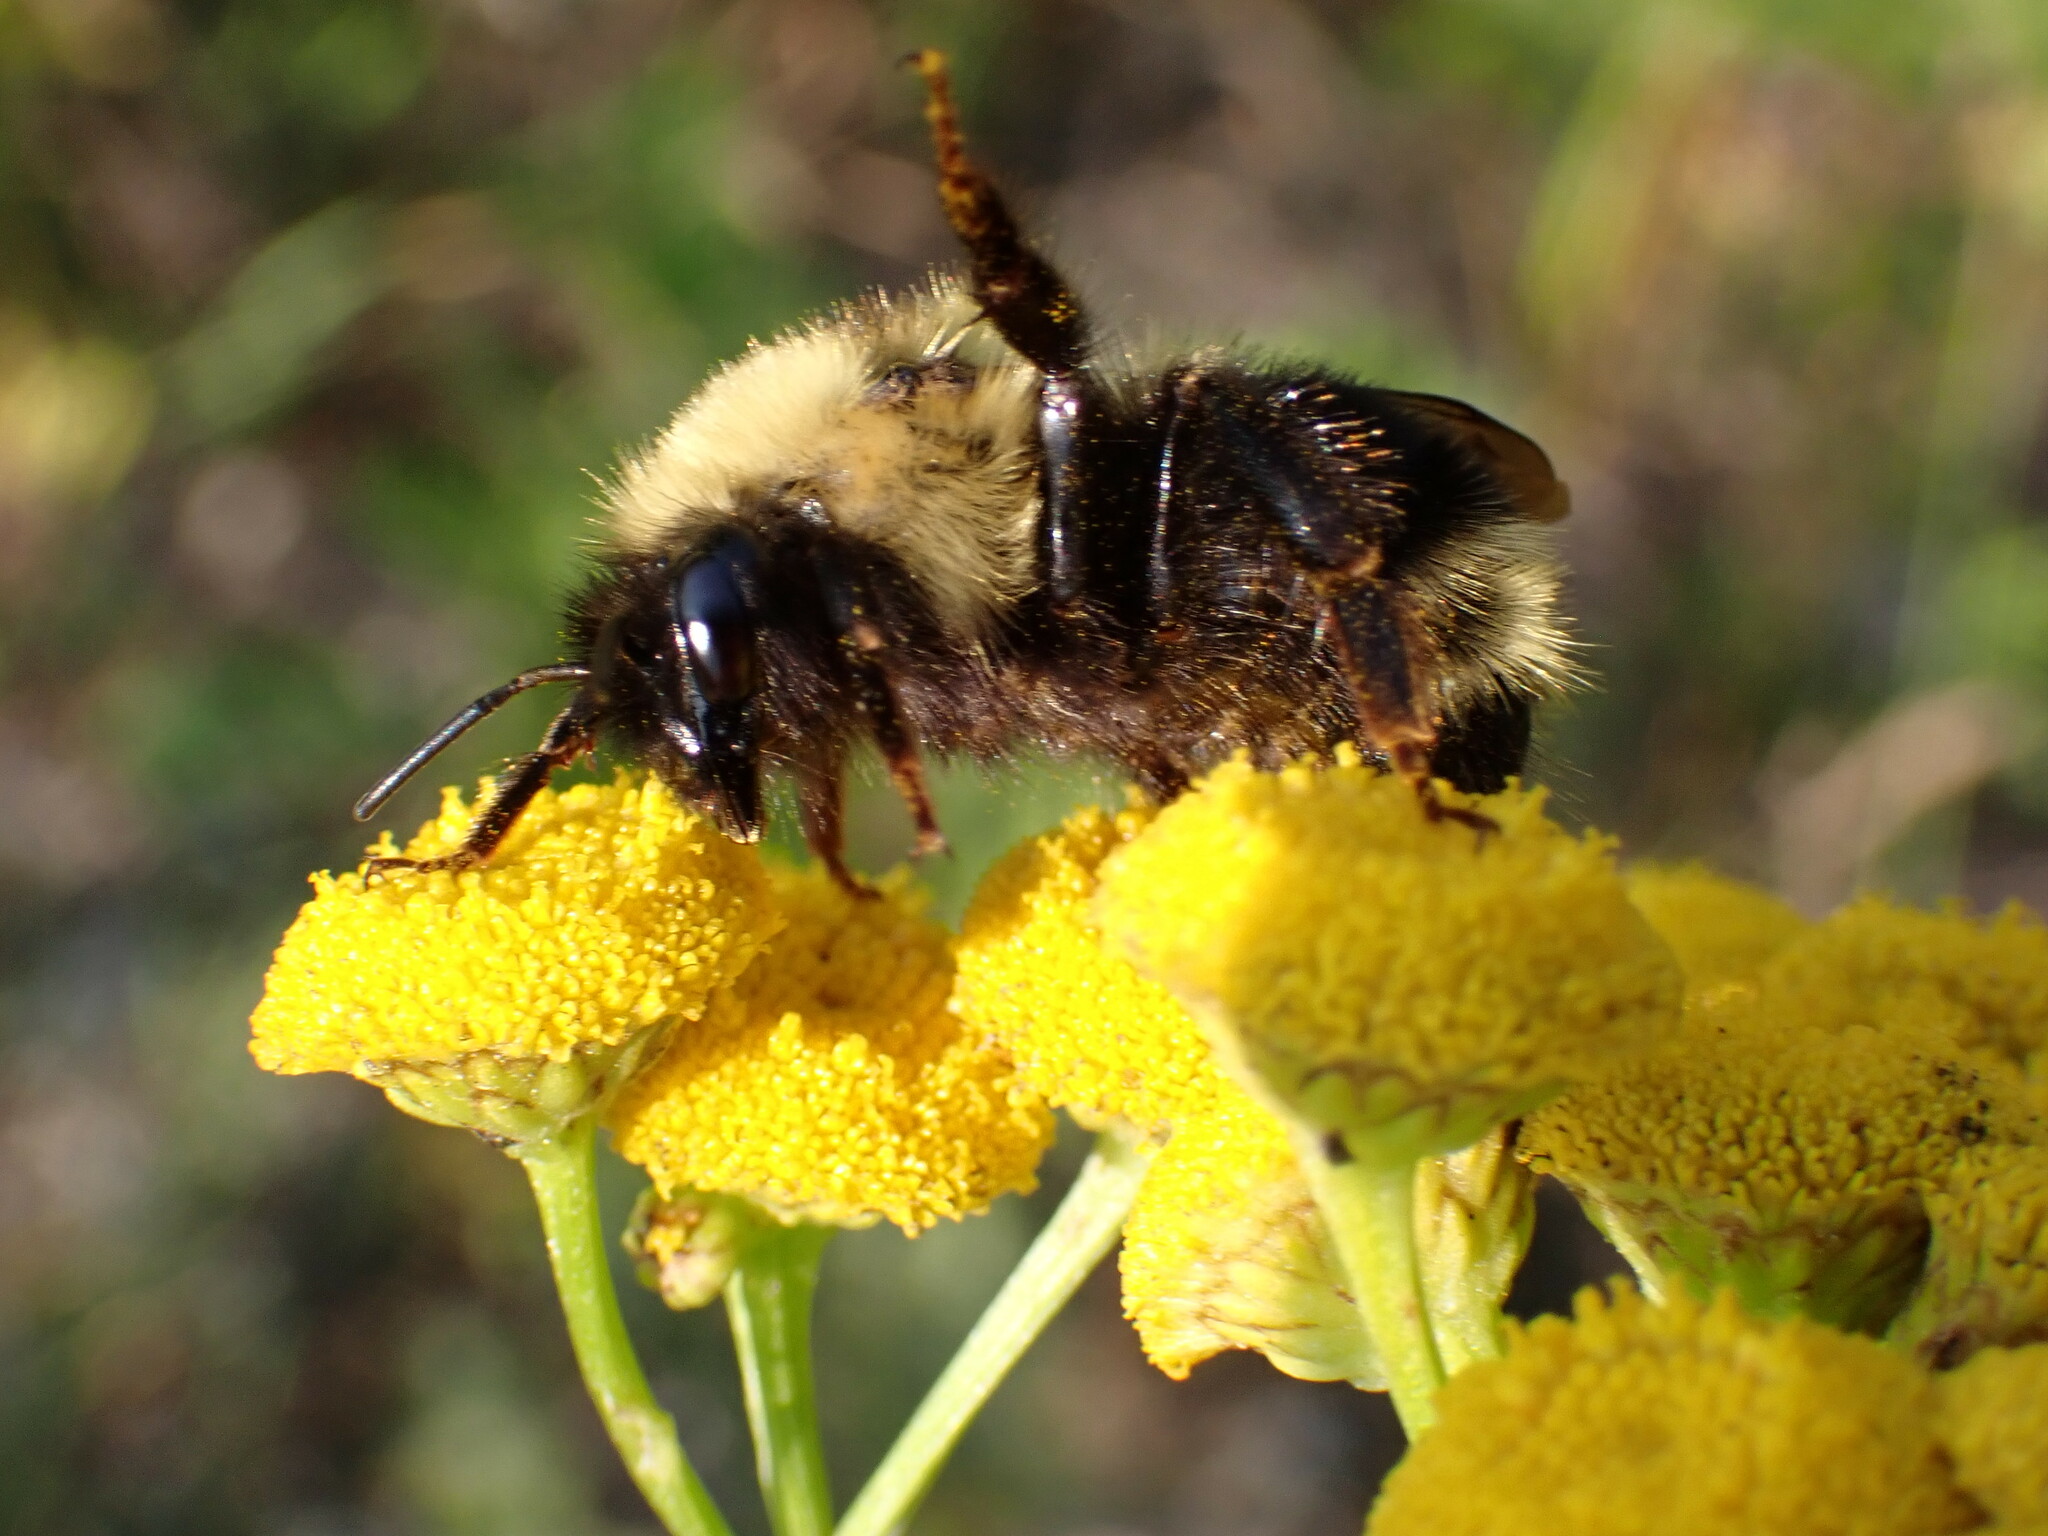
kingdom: Animalia
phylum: Arthropoda
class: Insecta
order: Hymenoptera
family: Apidae
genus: Bombus
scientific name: Bombus flavidus
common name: Fernald cuckoo bumble bee
